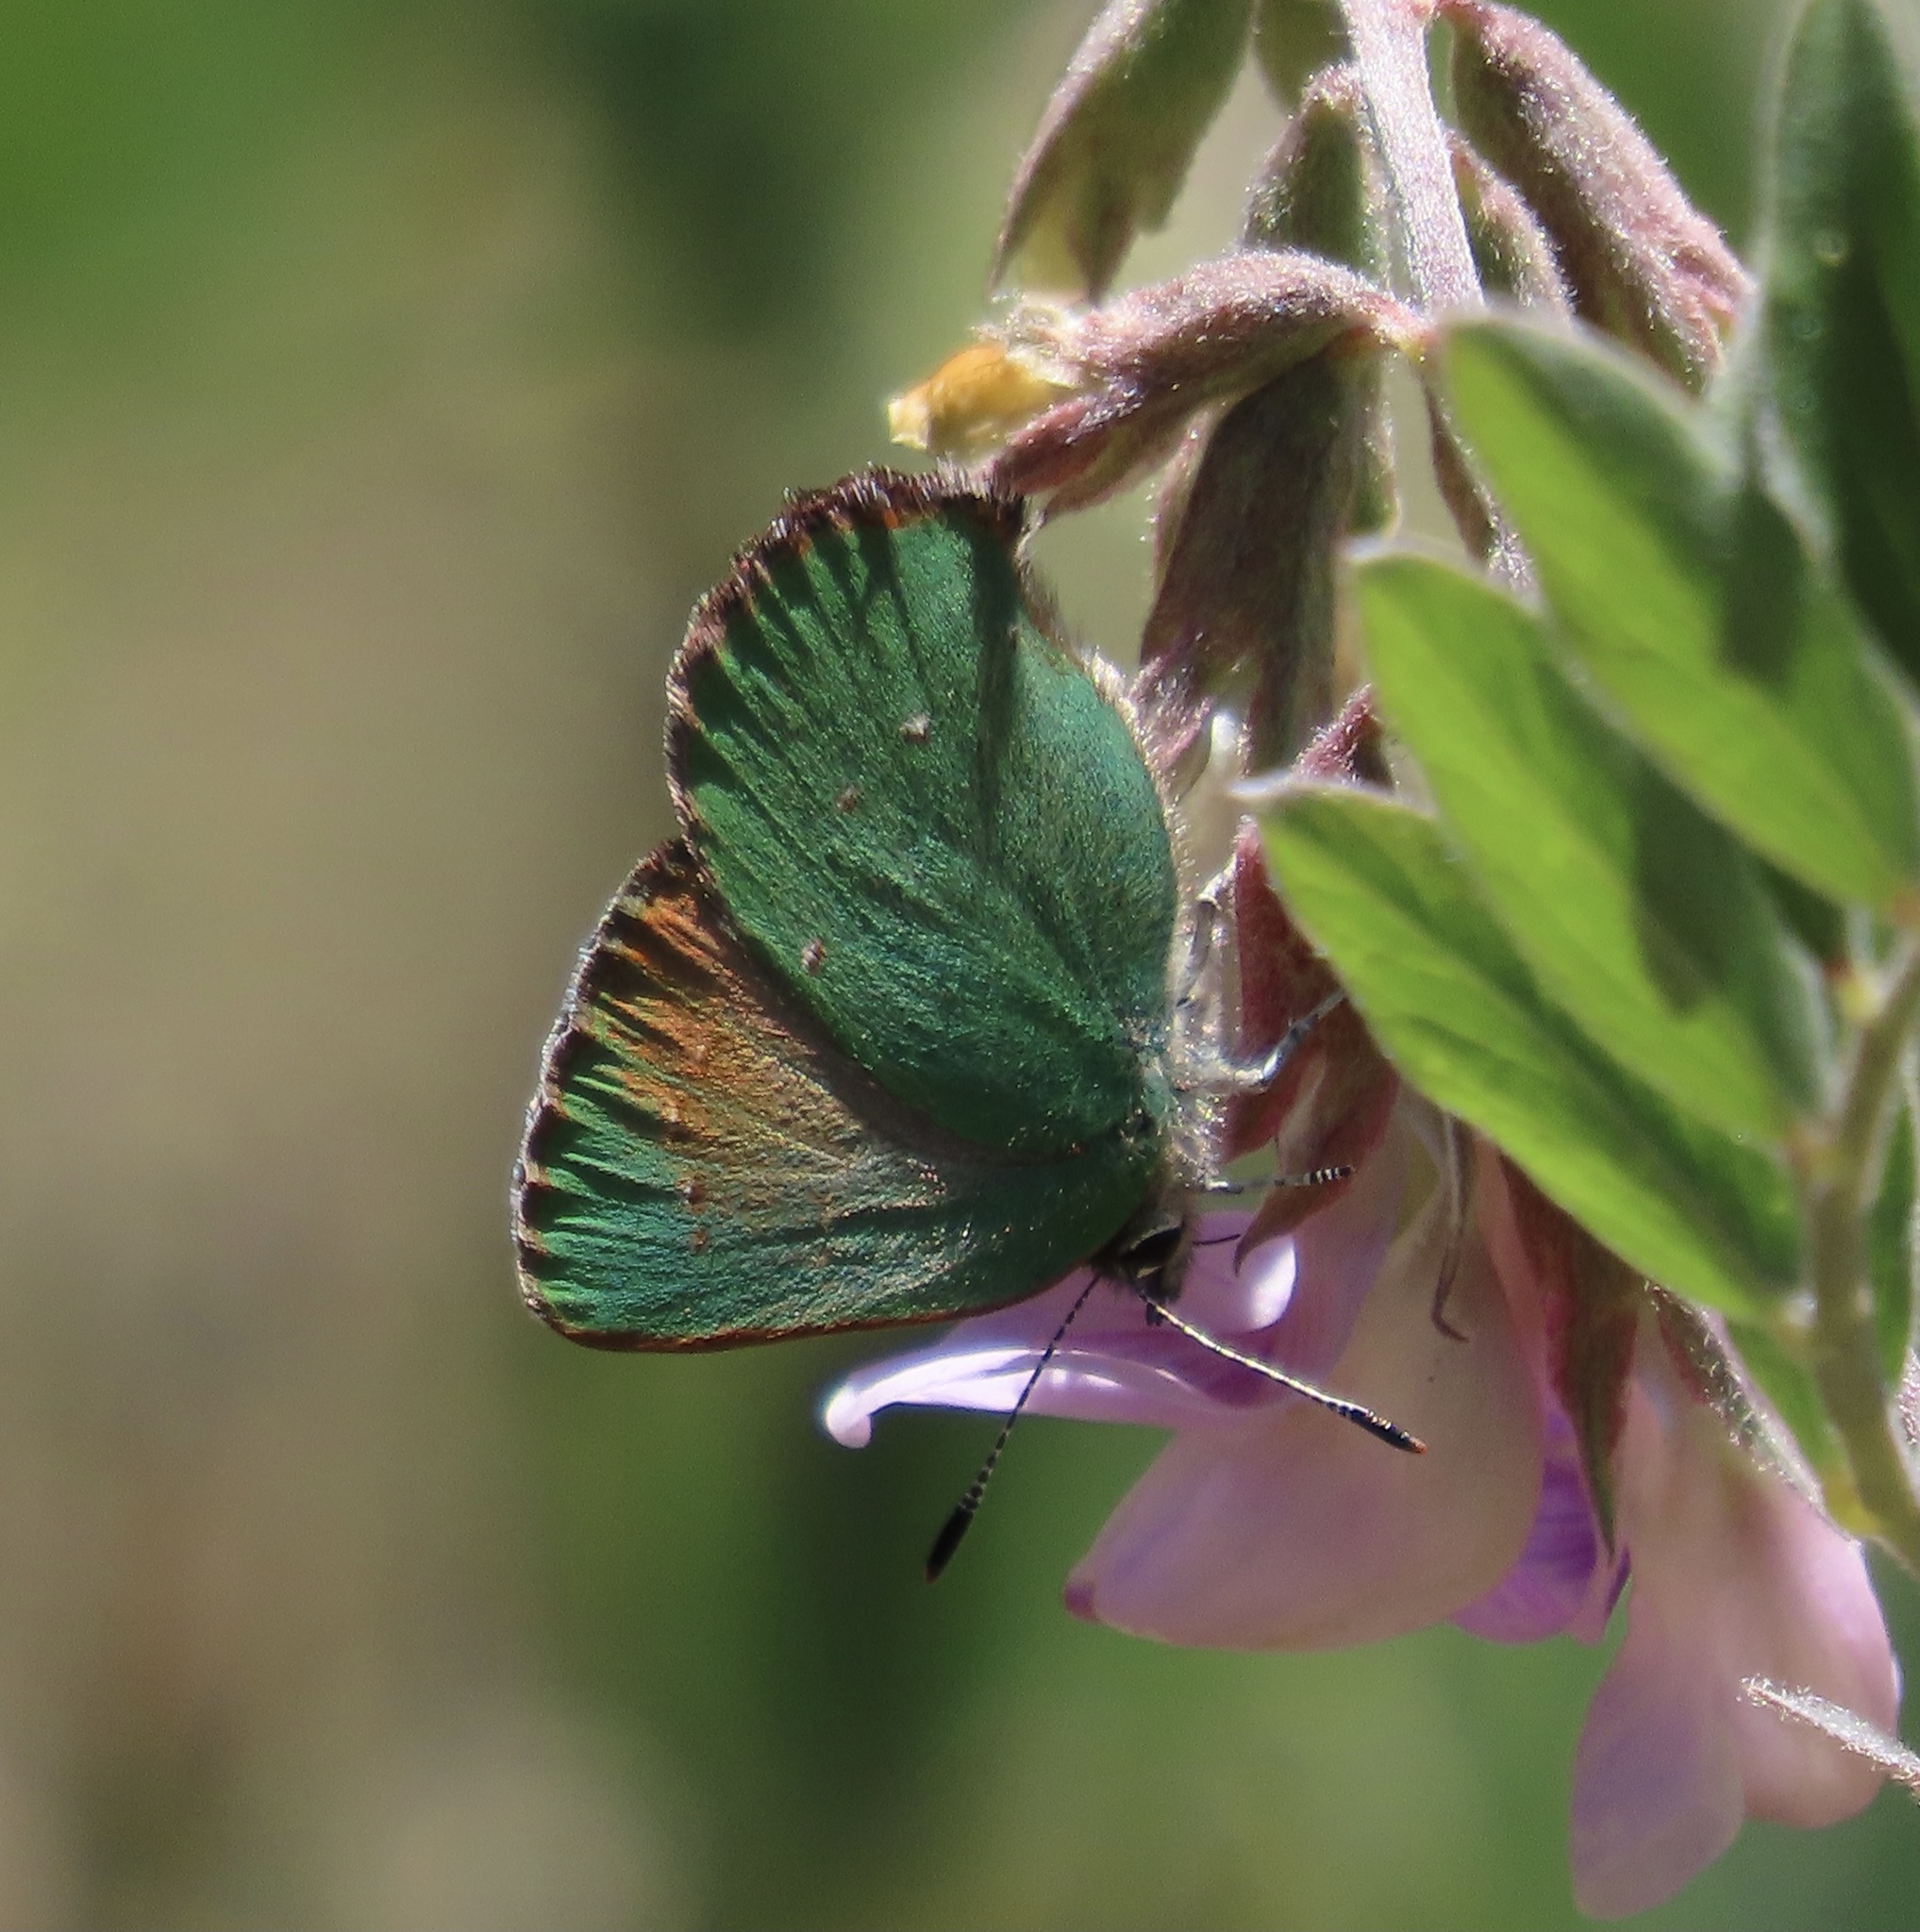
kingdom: Animalia
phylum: Arthropoda
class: Insecta
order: Lepidoptera
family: Lycaenidae
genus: Callophrys
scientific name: Callophrys dumetorum
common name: Bramble hairstreak
